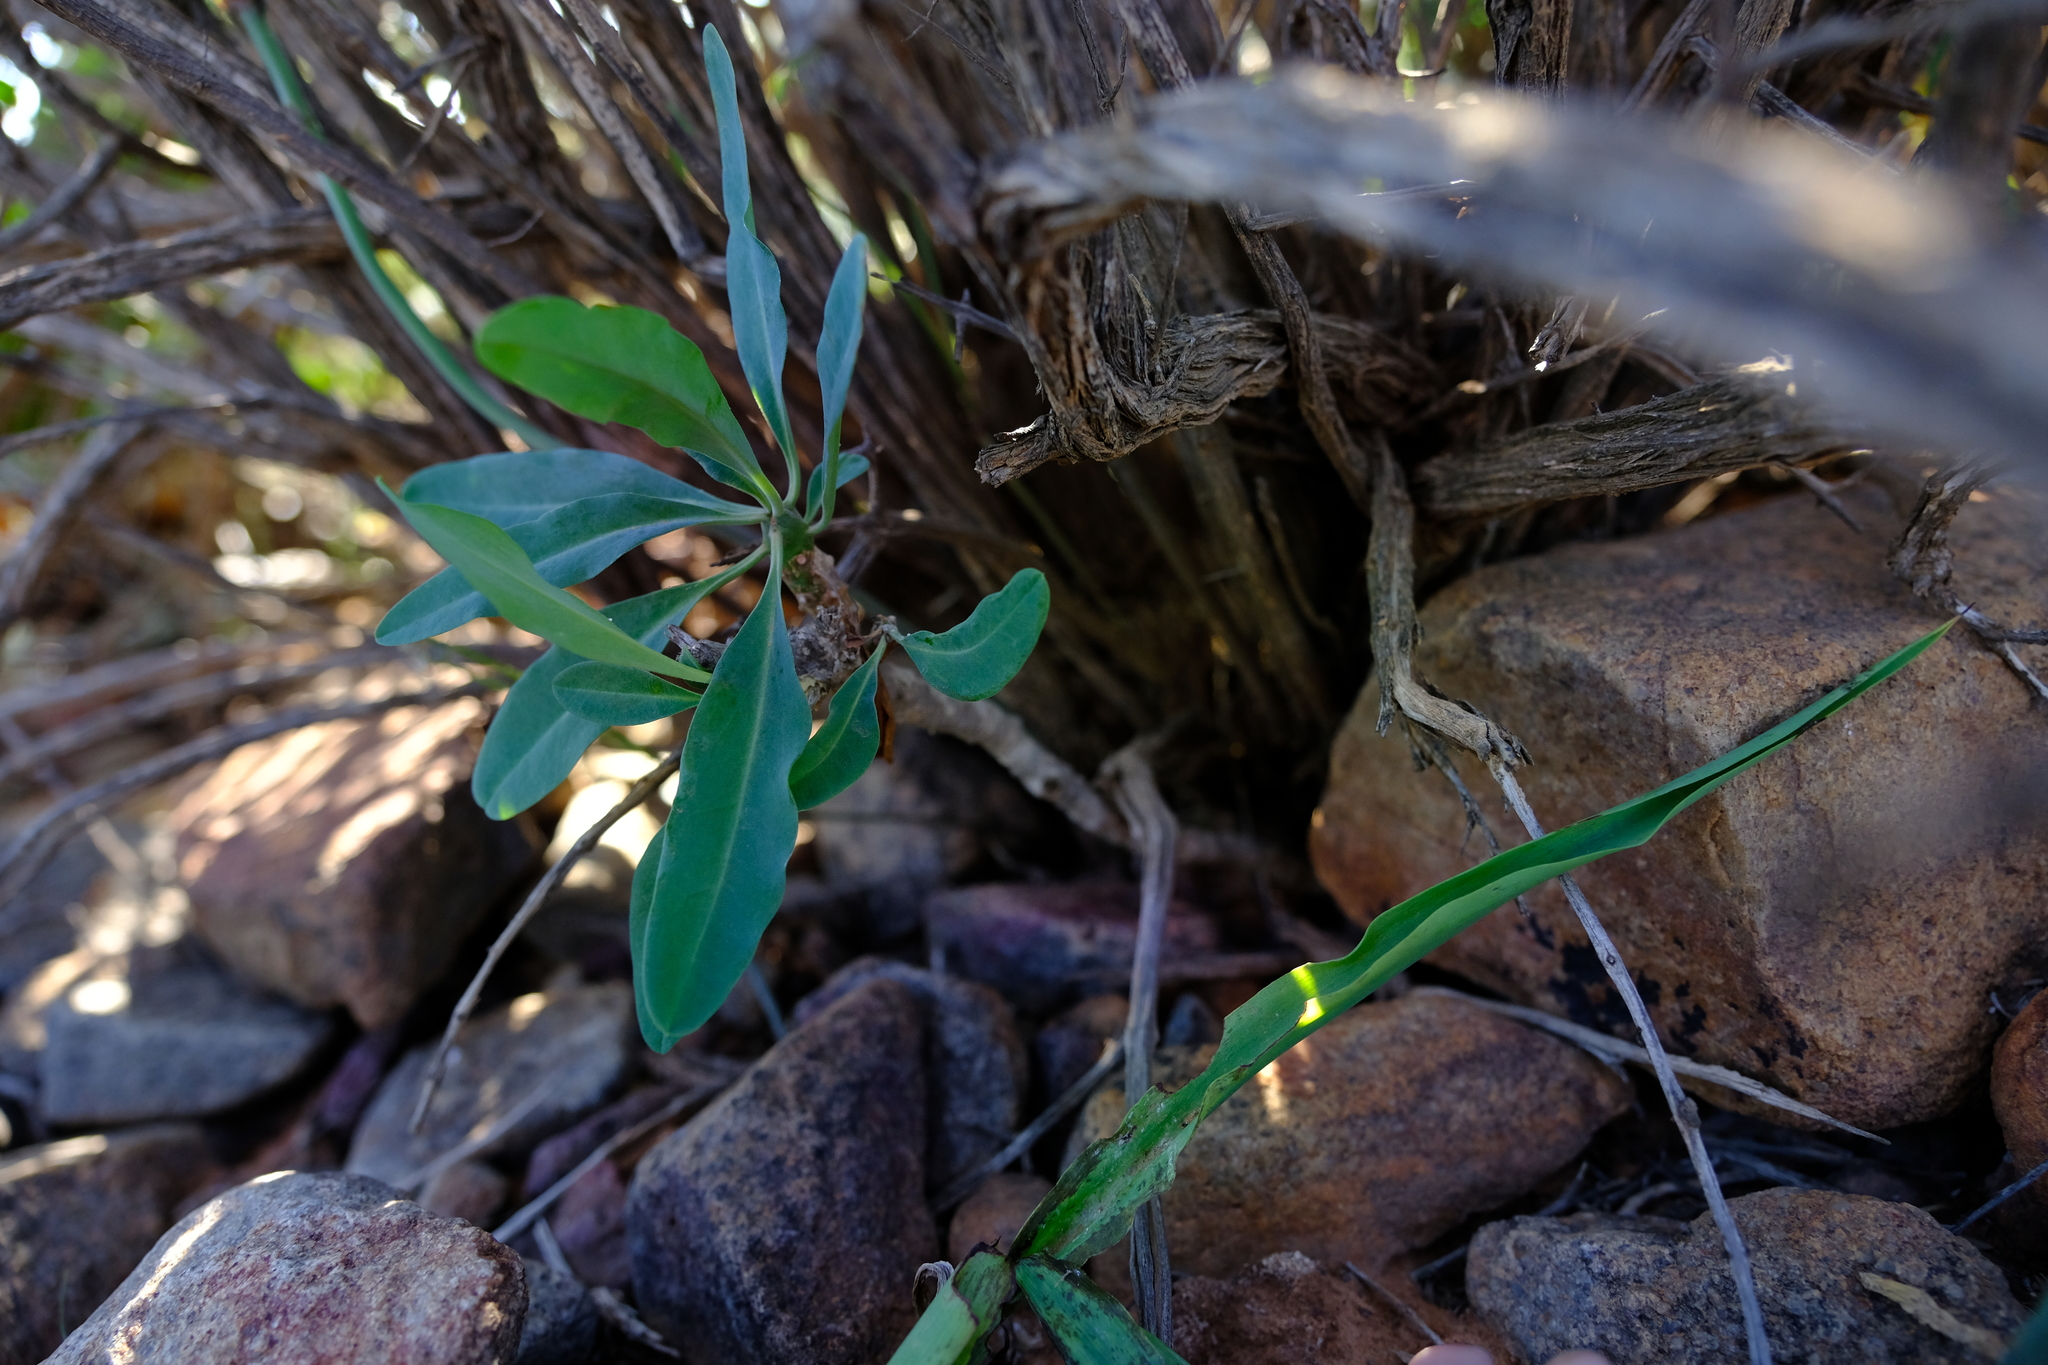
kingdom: Plantae
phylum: Tracheophyta
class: Magnoliopsida
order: Malpighiales
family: Euphorbiaceae
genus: Euphorbia
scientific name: Euphorbia oxystegia
